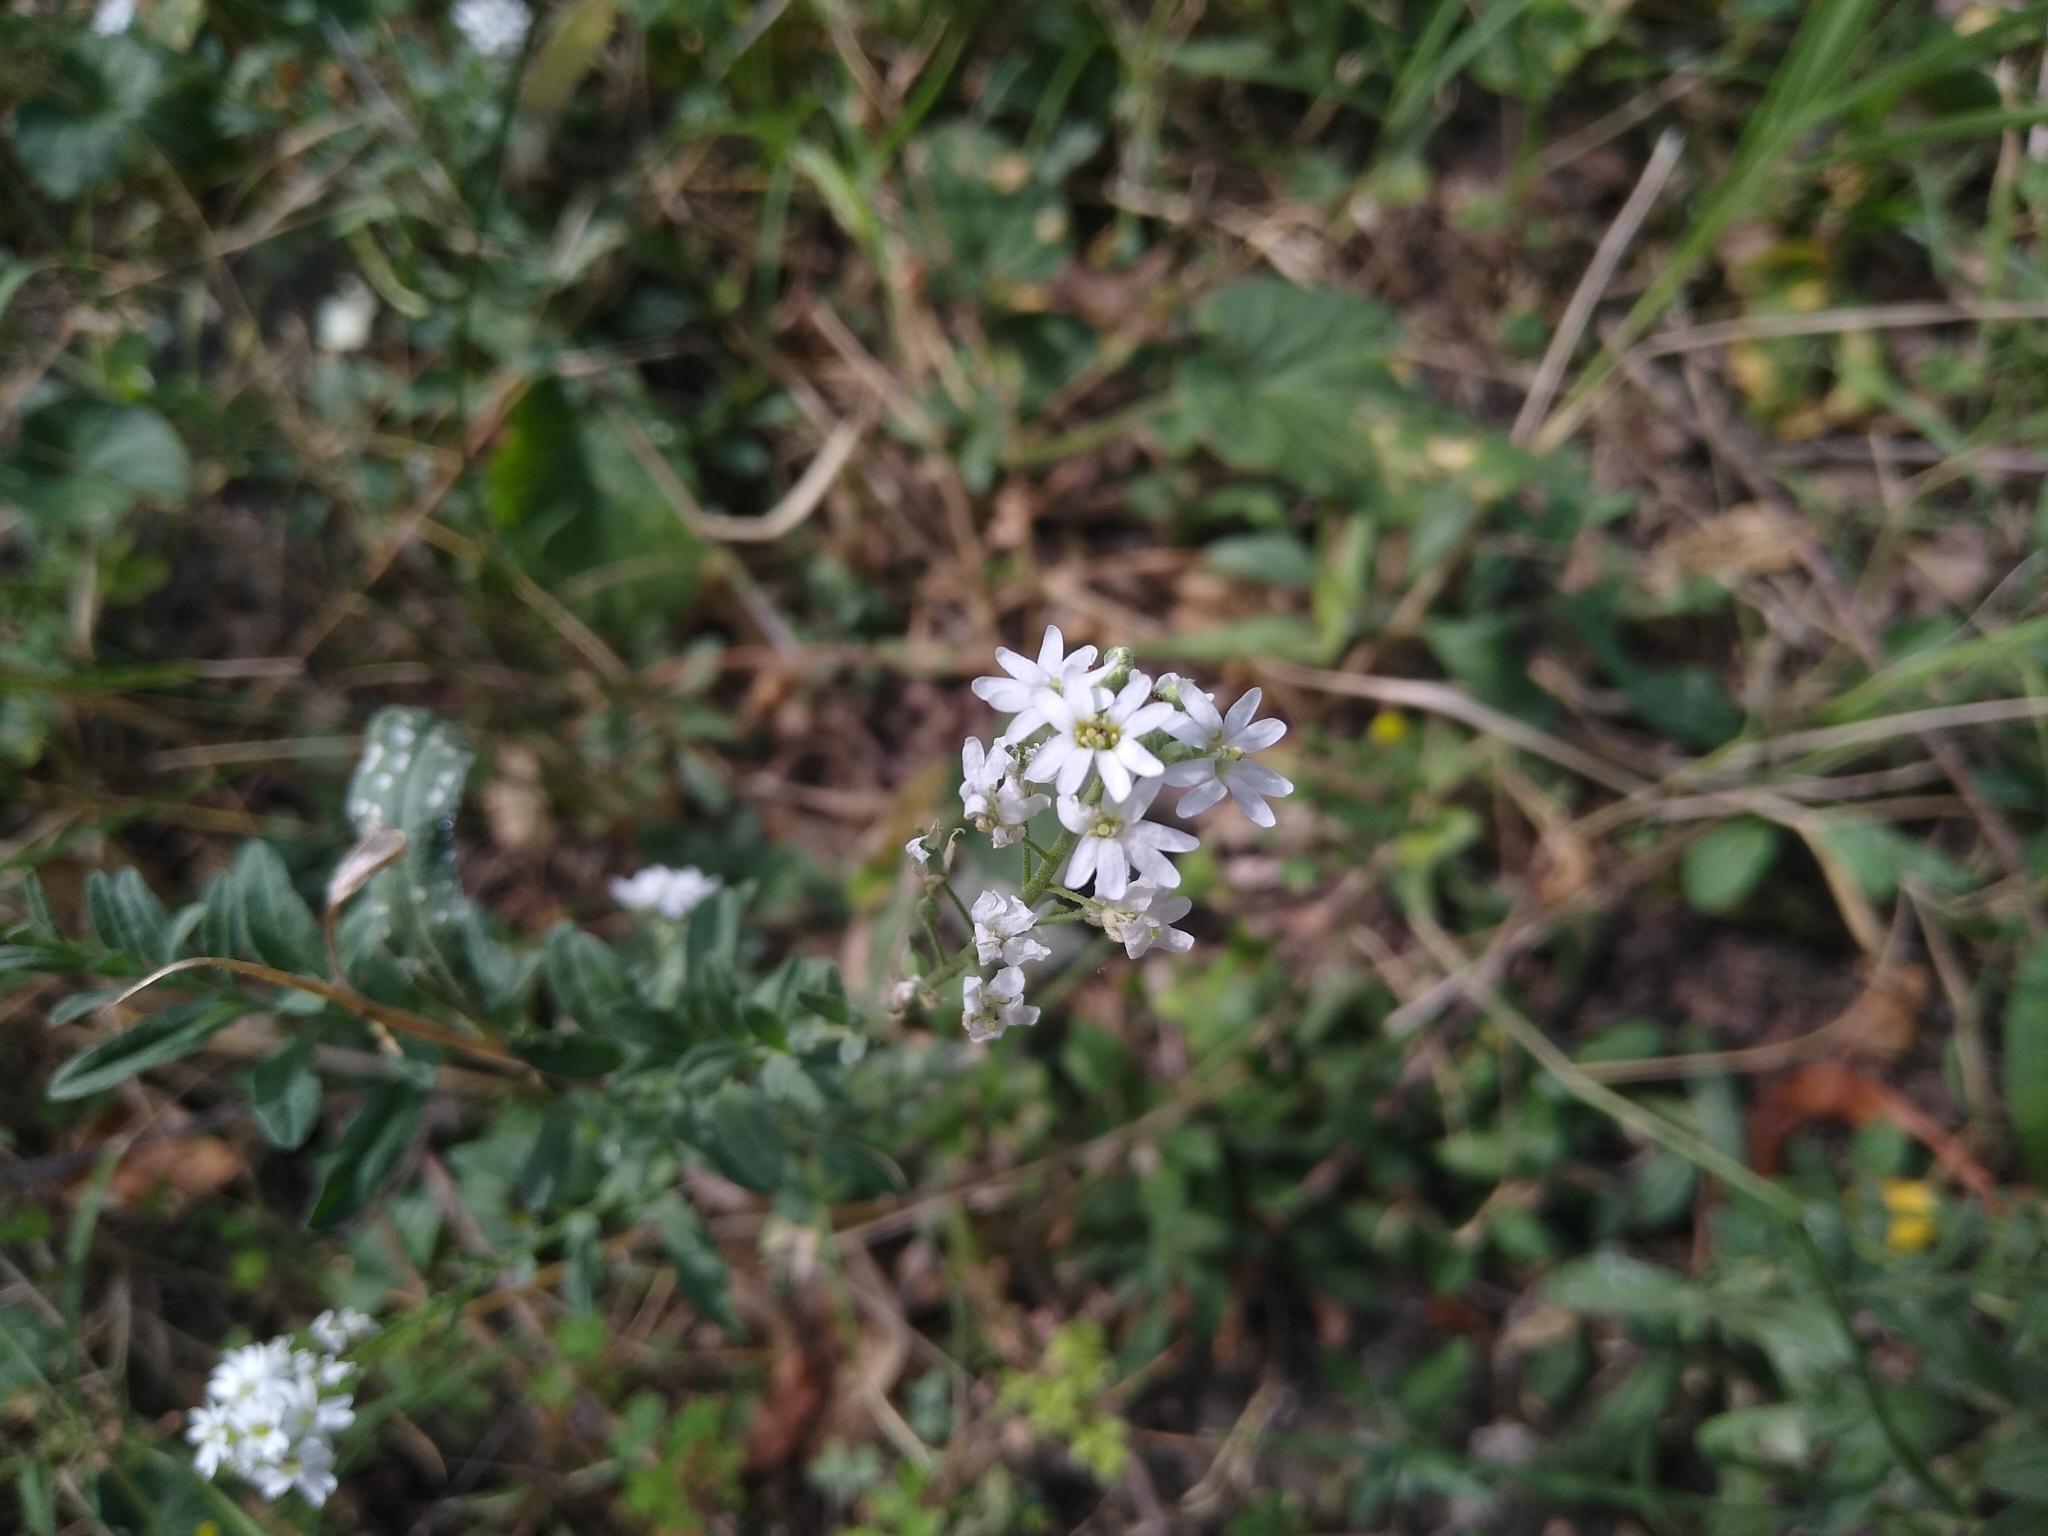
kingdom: Plantae
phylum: Tracheophyta
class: Magnoliopsida
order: Brassicales
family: Brassicaceae
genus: Berteroa
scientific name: Berteroa incana
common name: Hoary alison
